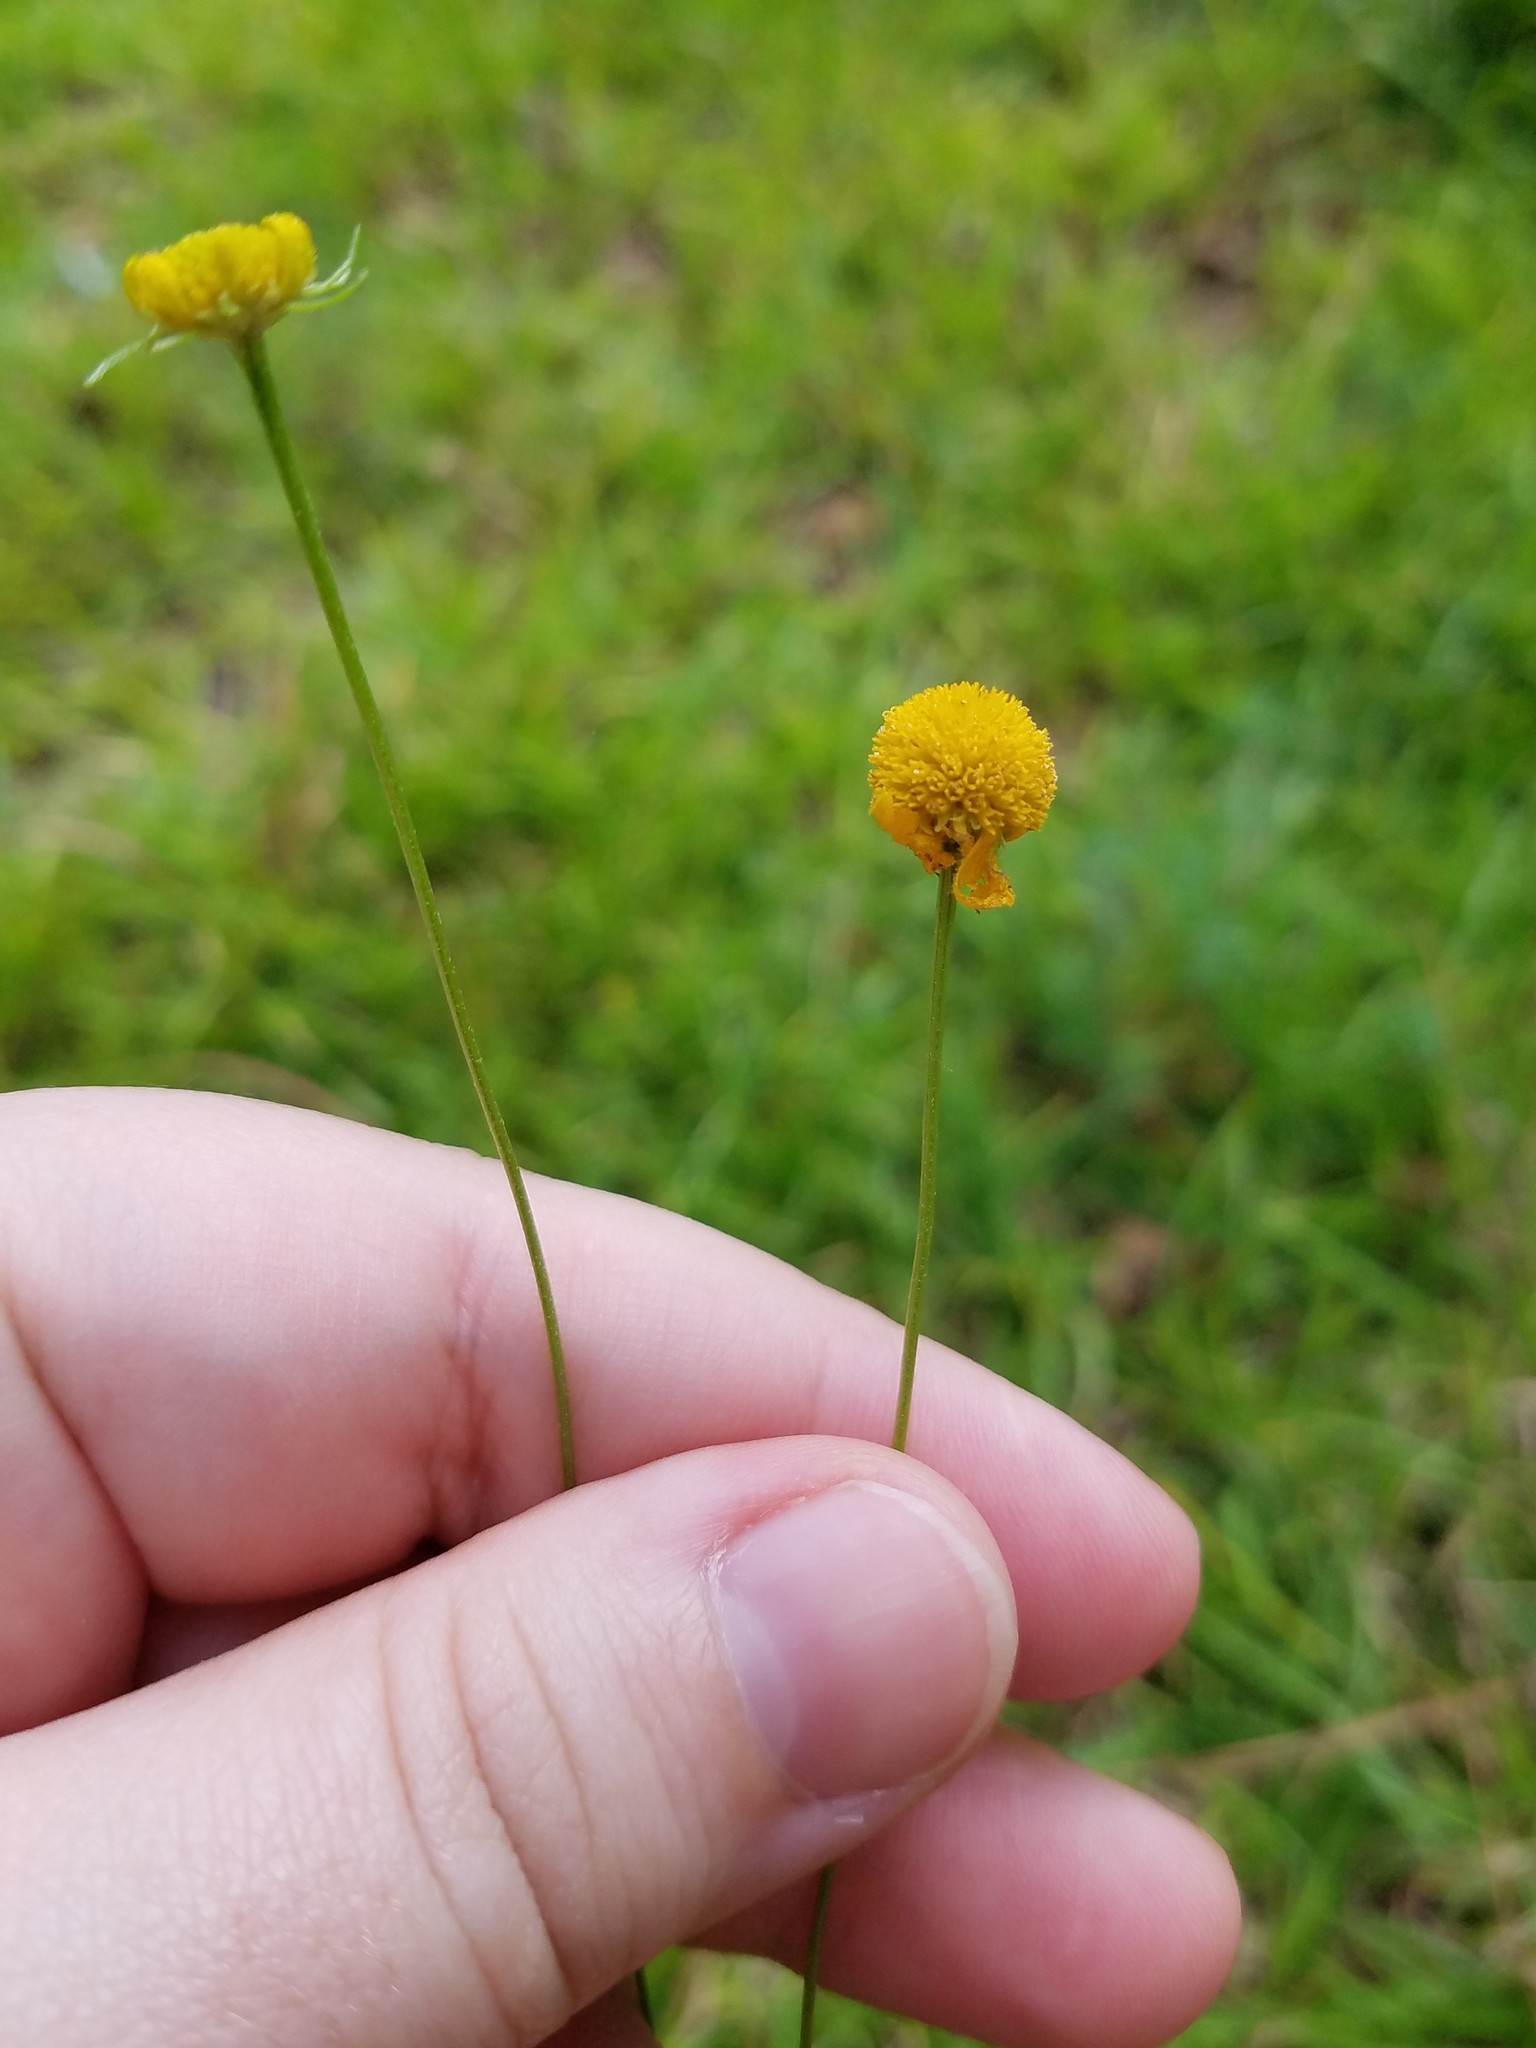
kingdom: Plantae
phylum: Tracheophyta
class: Magnoliopsida
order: Asterales
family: Asteraceae
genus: Helenium
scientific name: Helenium amarum
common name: Bitter sneezeweed
